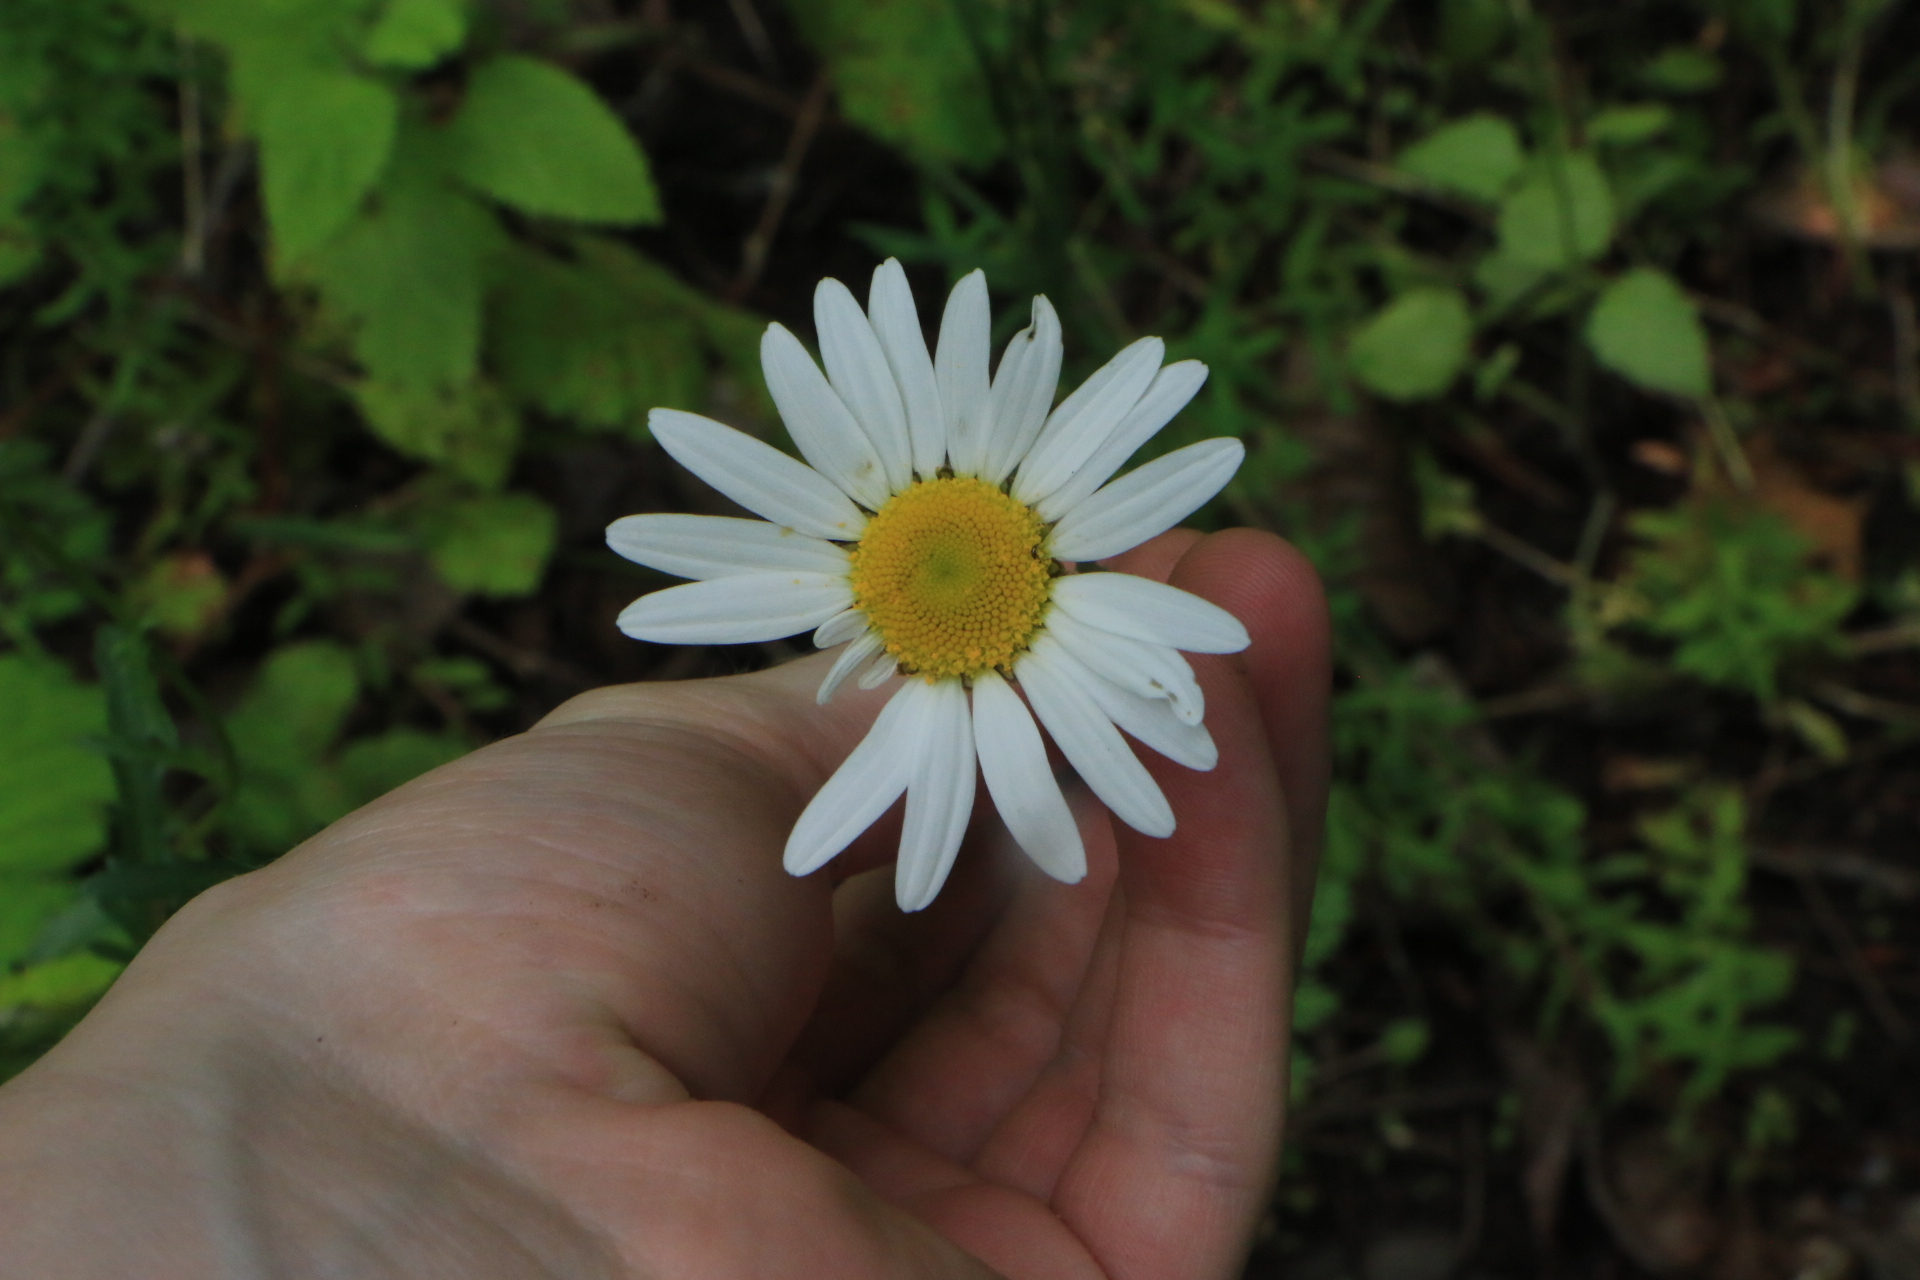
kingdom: Plantae
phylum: Tracheophyta
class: Magnoliopsida
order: Asterales
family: Asteraceae
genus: Leucanthemum
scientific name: Leucanthemum vulgare
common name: Oxeye daisy
